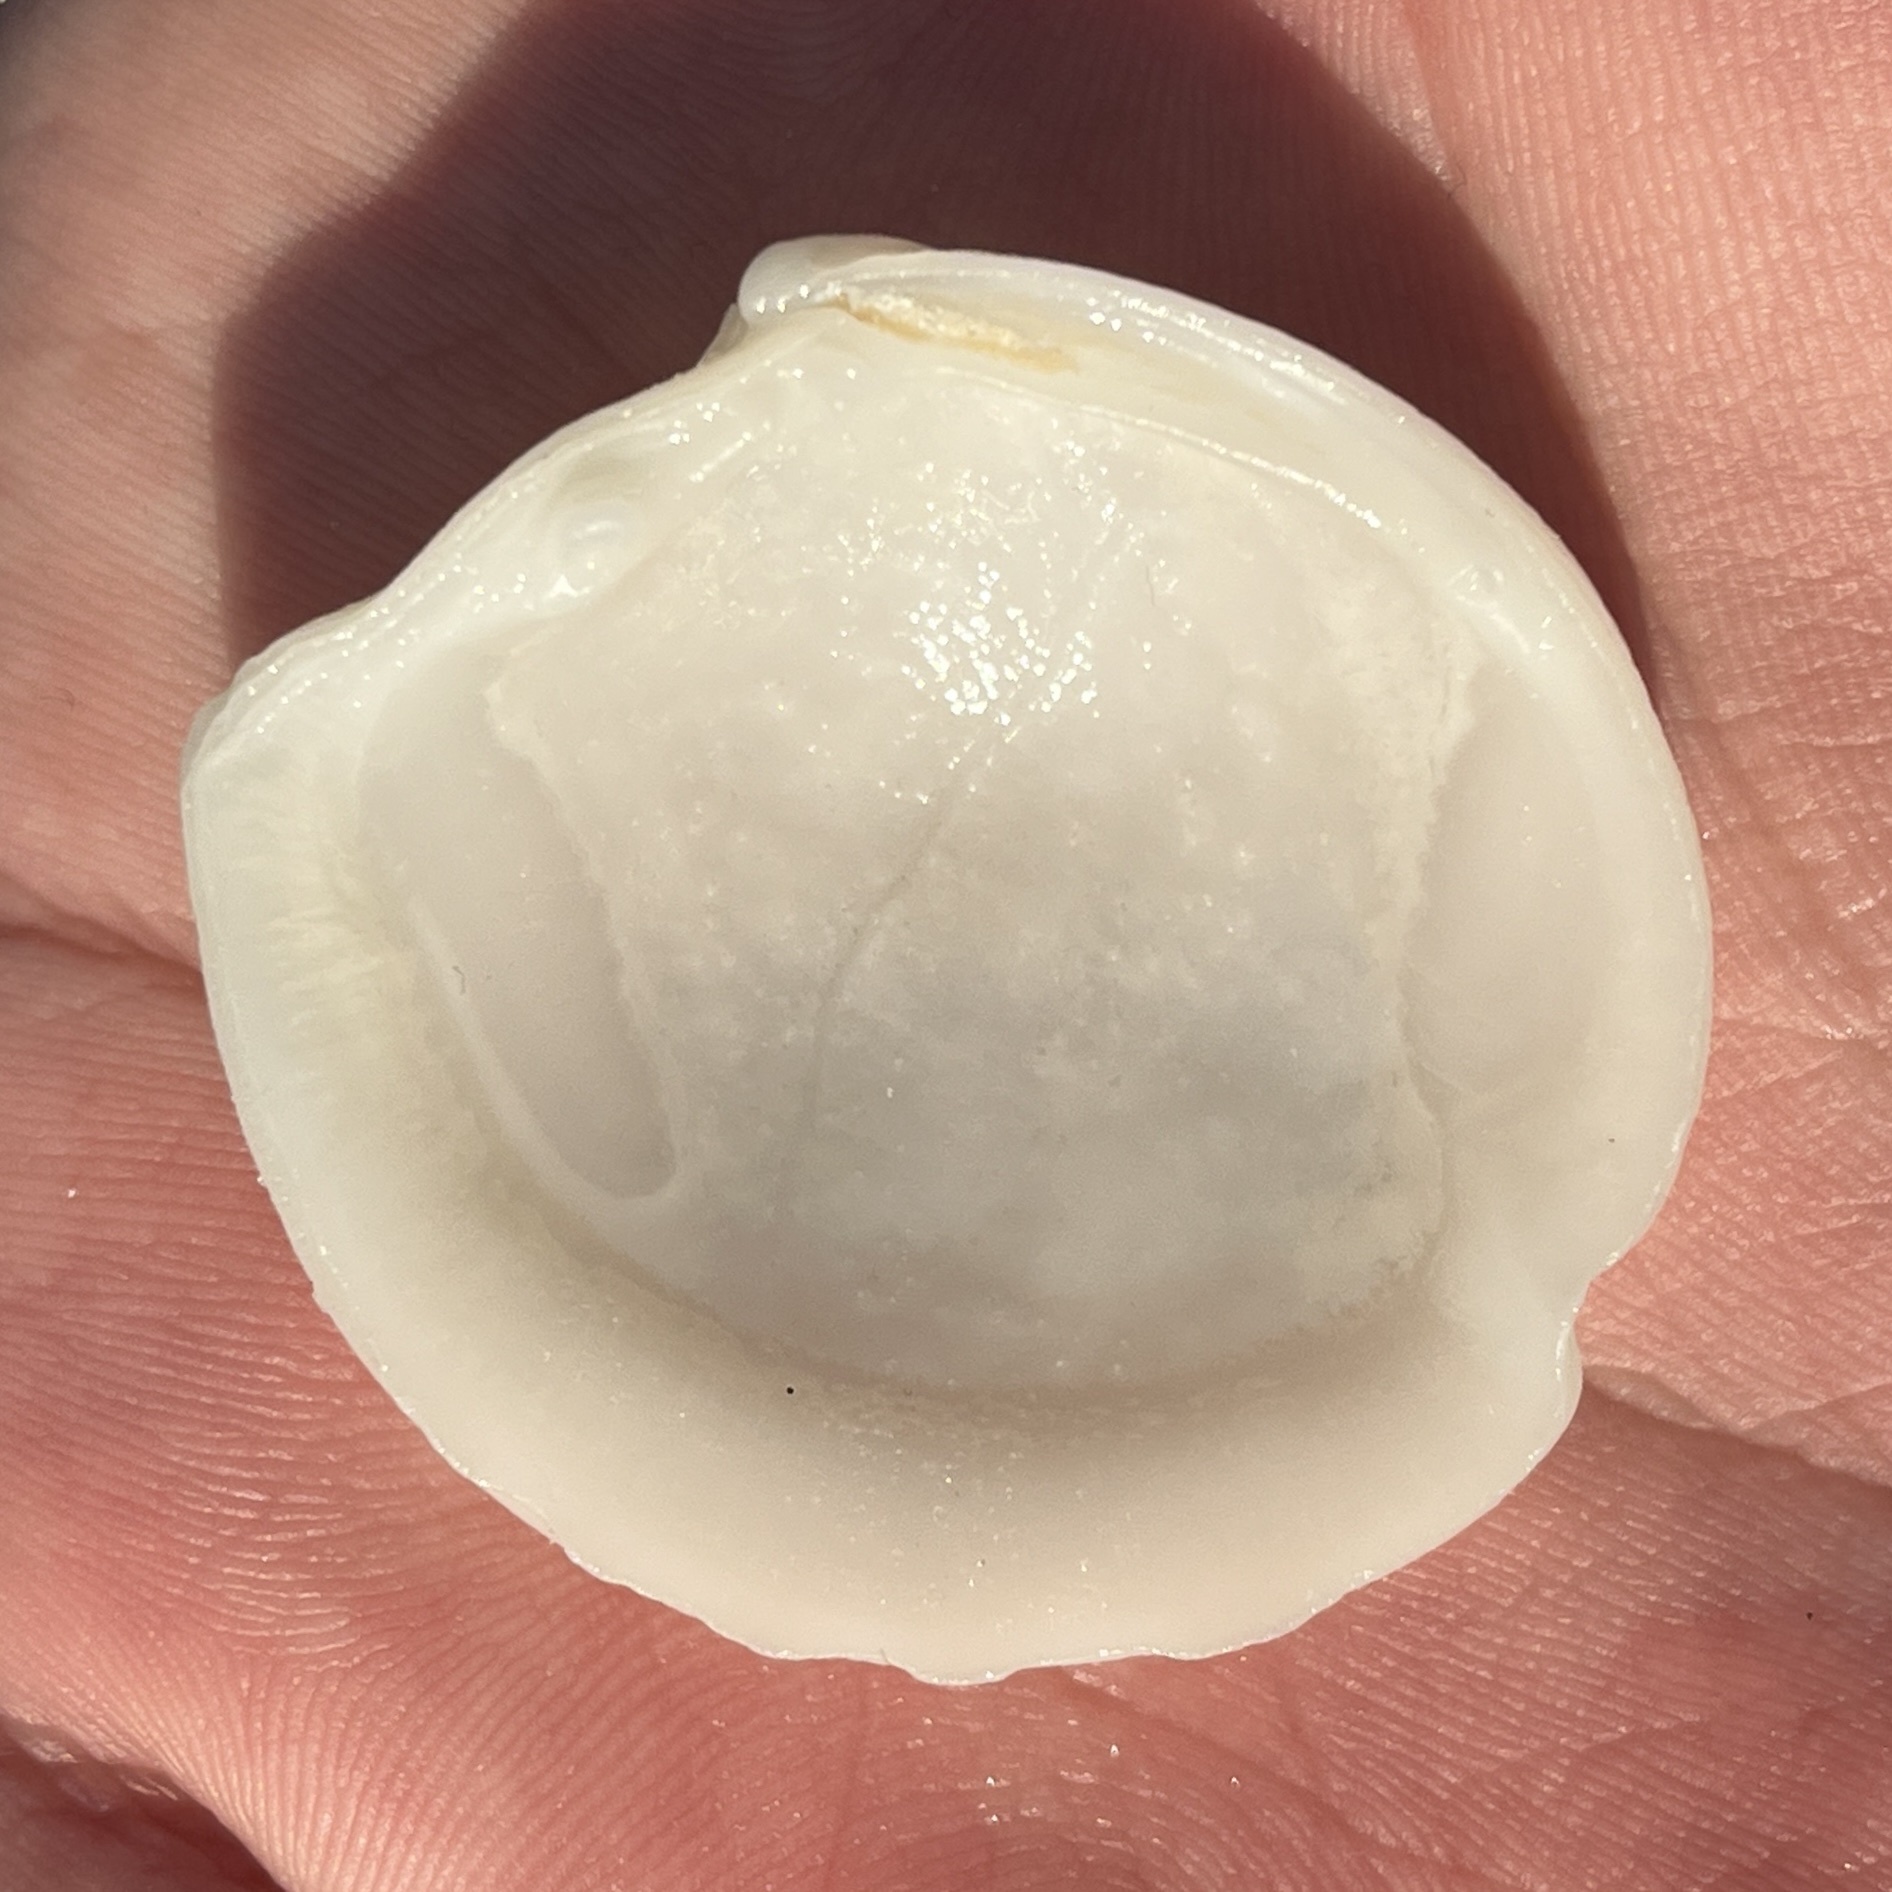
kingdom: Animalia
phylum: Mollusca
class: Bivalvia
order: Lucinida
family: Lucinidae
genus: Lucina
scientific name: Lucina pensylvanica
